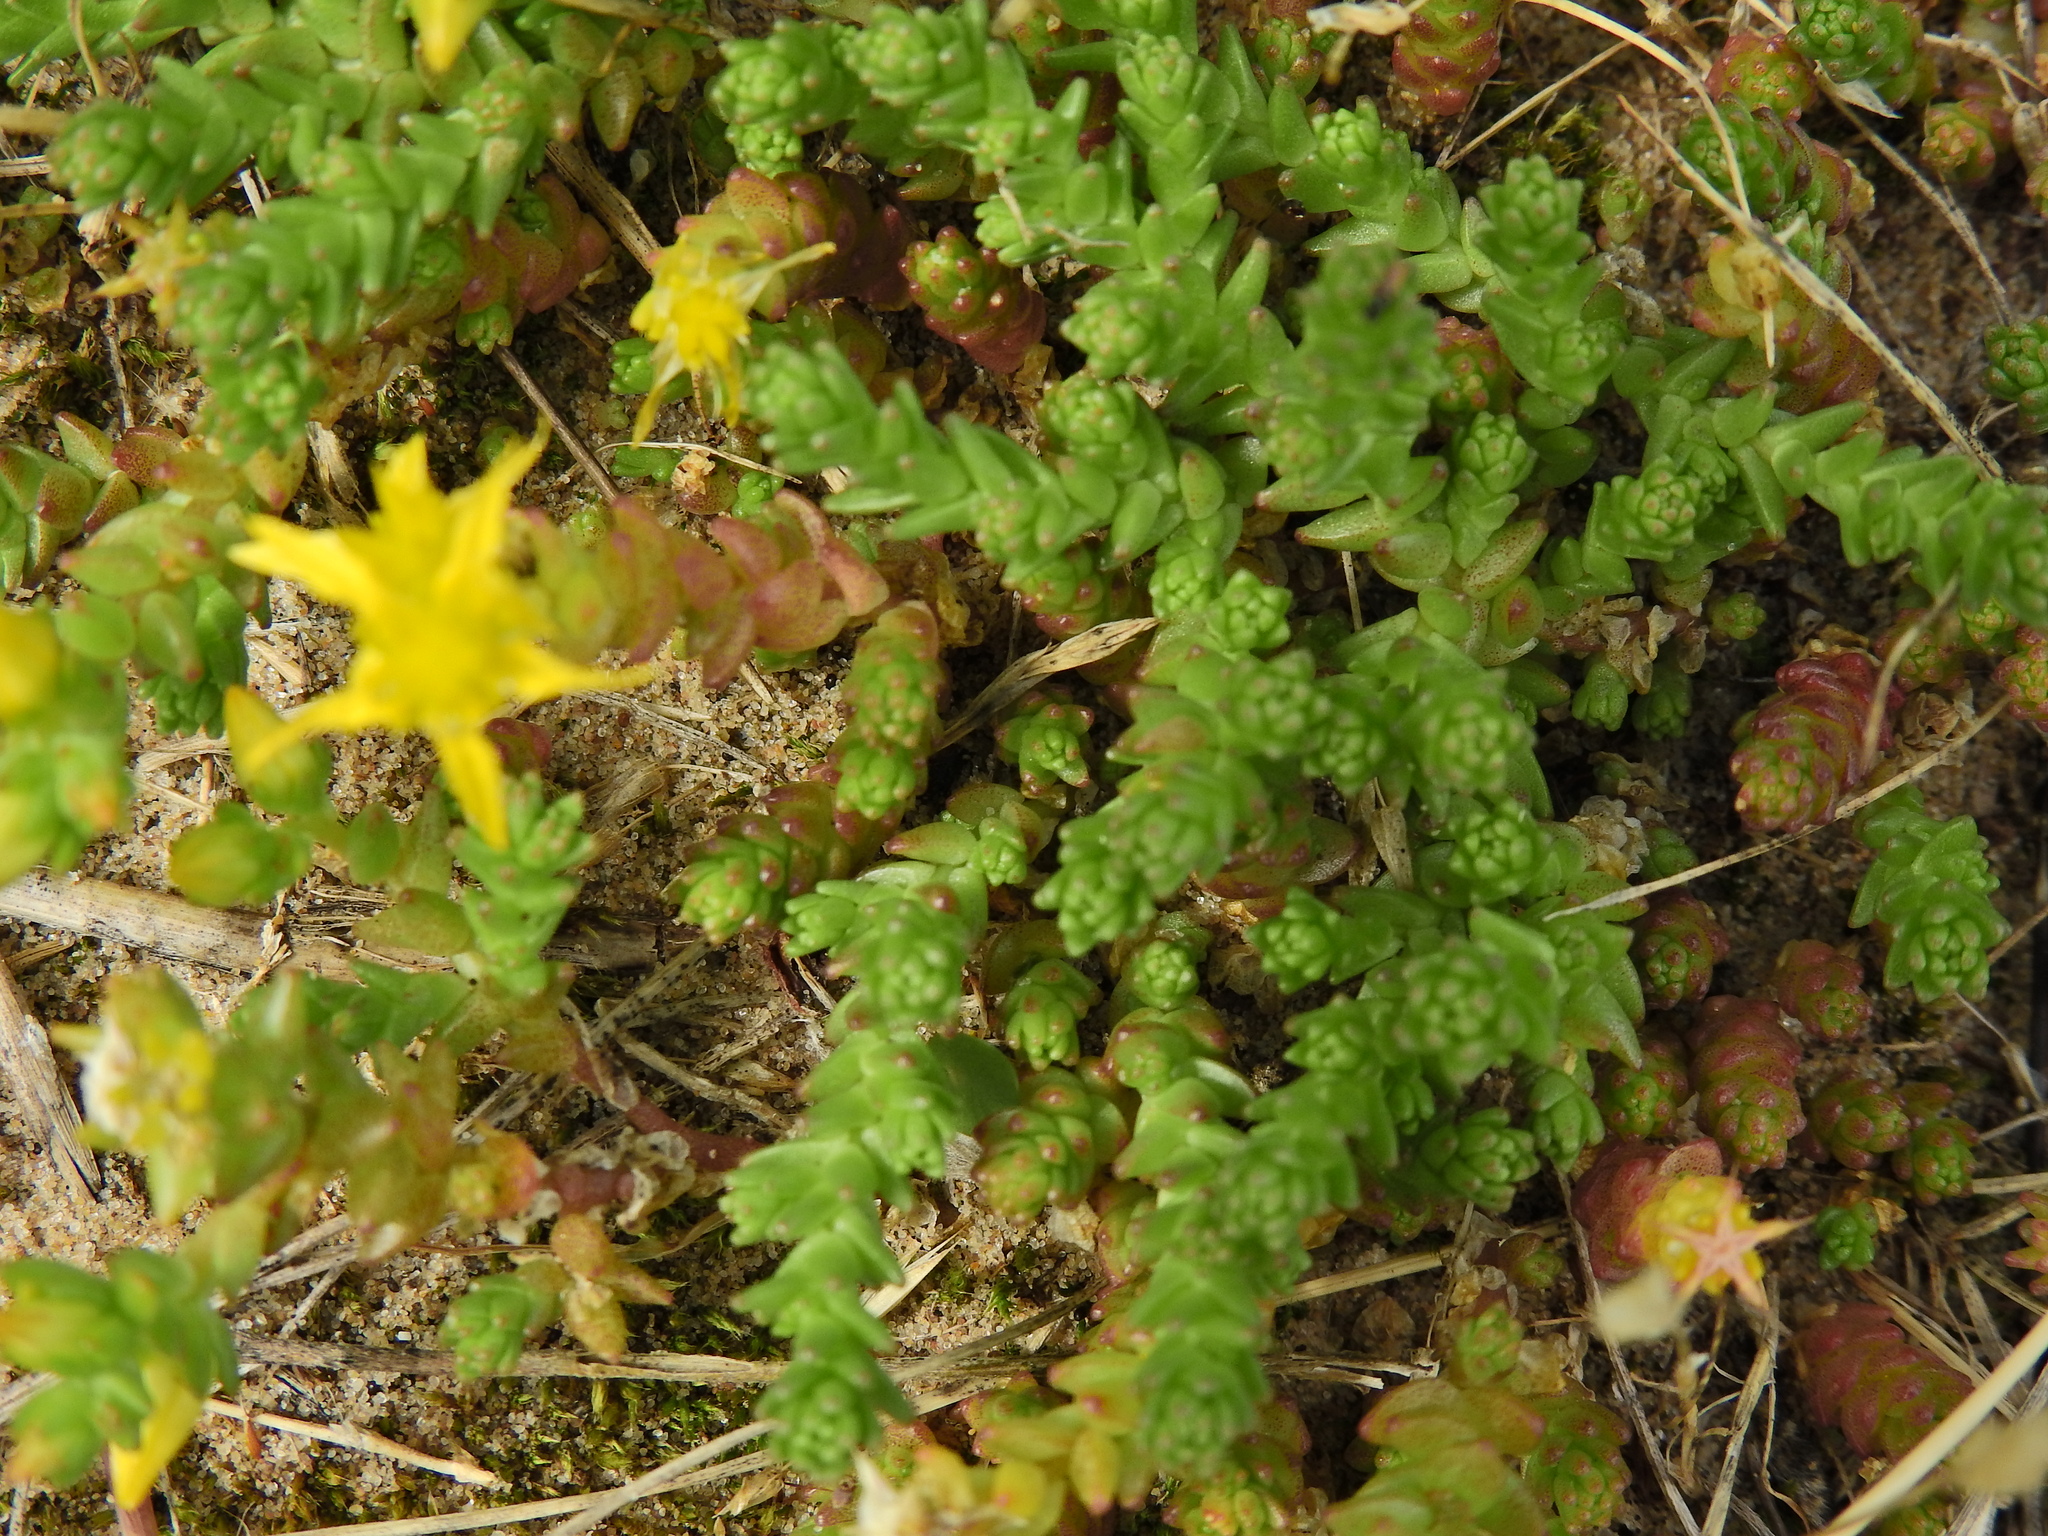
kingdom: Plantae
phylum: Tracheophyta
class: Magnoliopsida
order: Saxifragales
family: Crassulaceae
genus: Sedum
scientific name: Sedum acre
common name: Biting stonecrop
